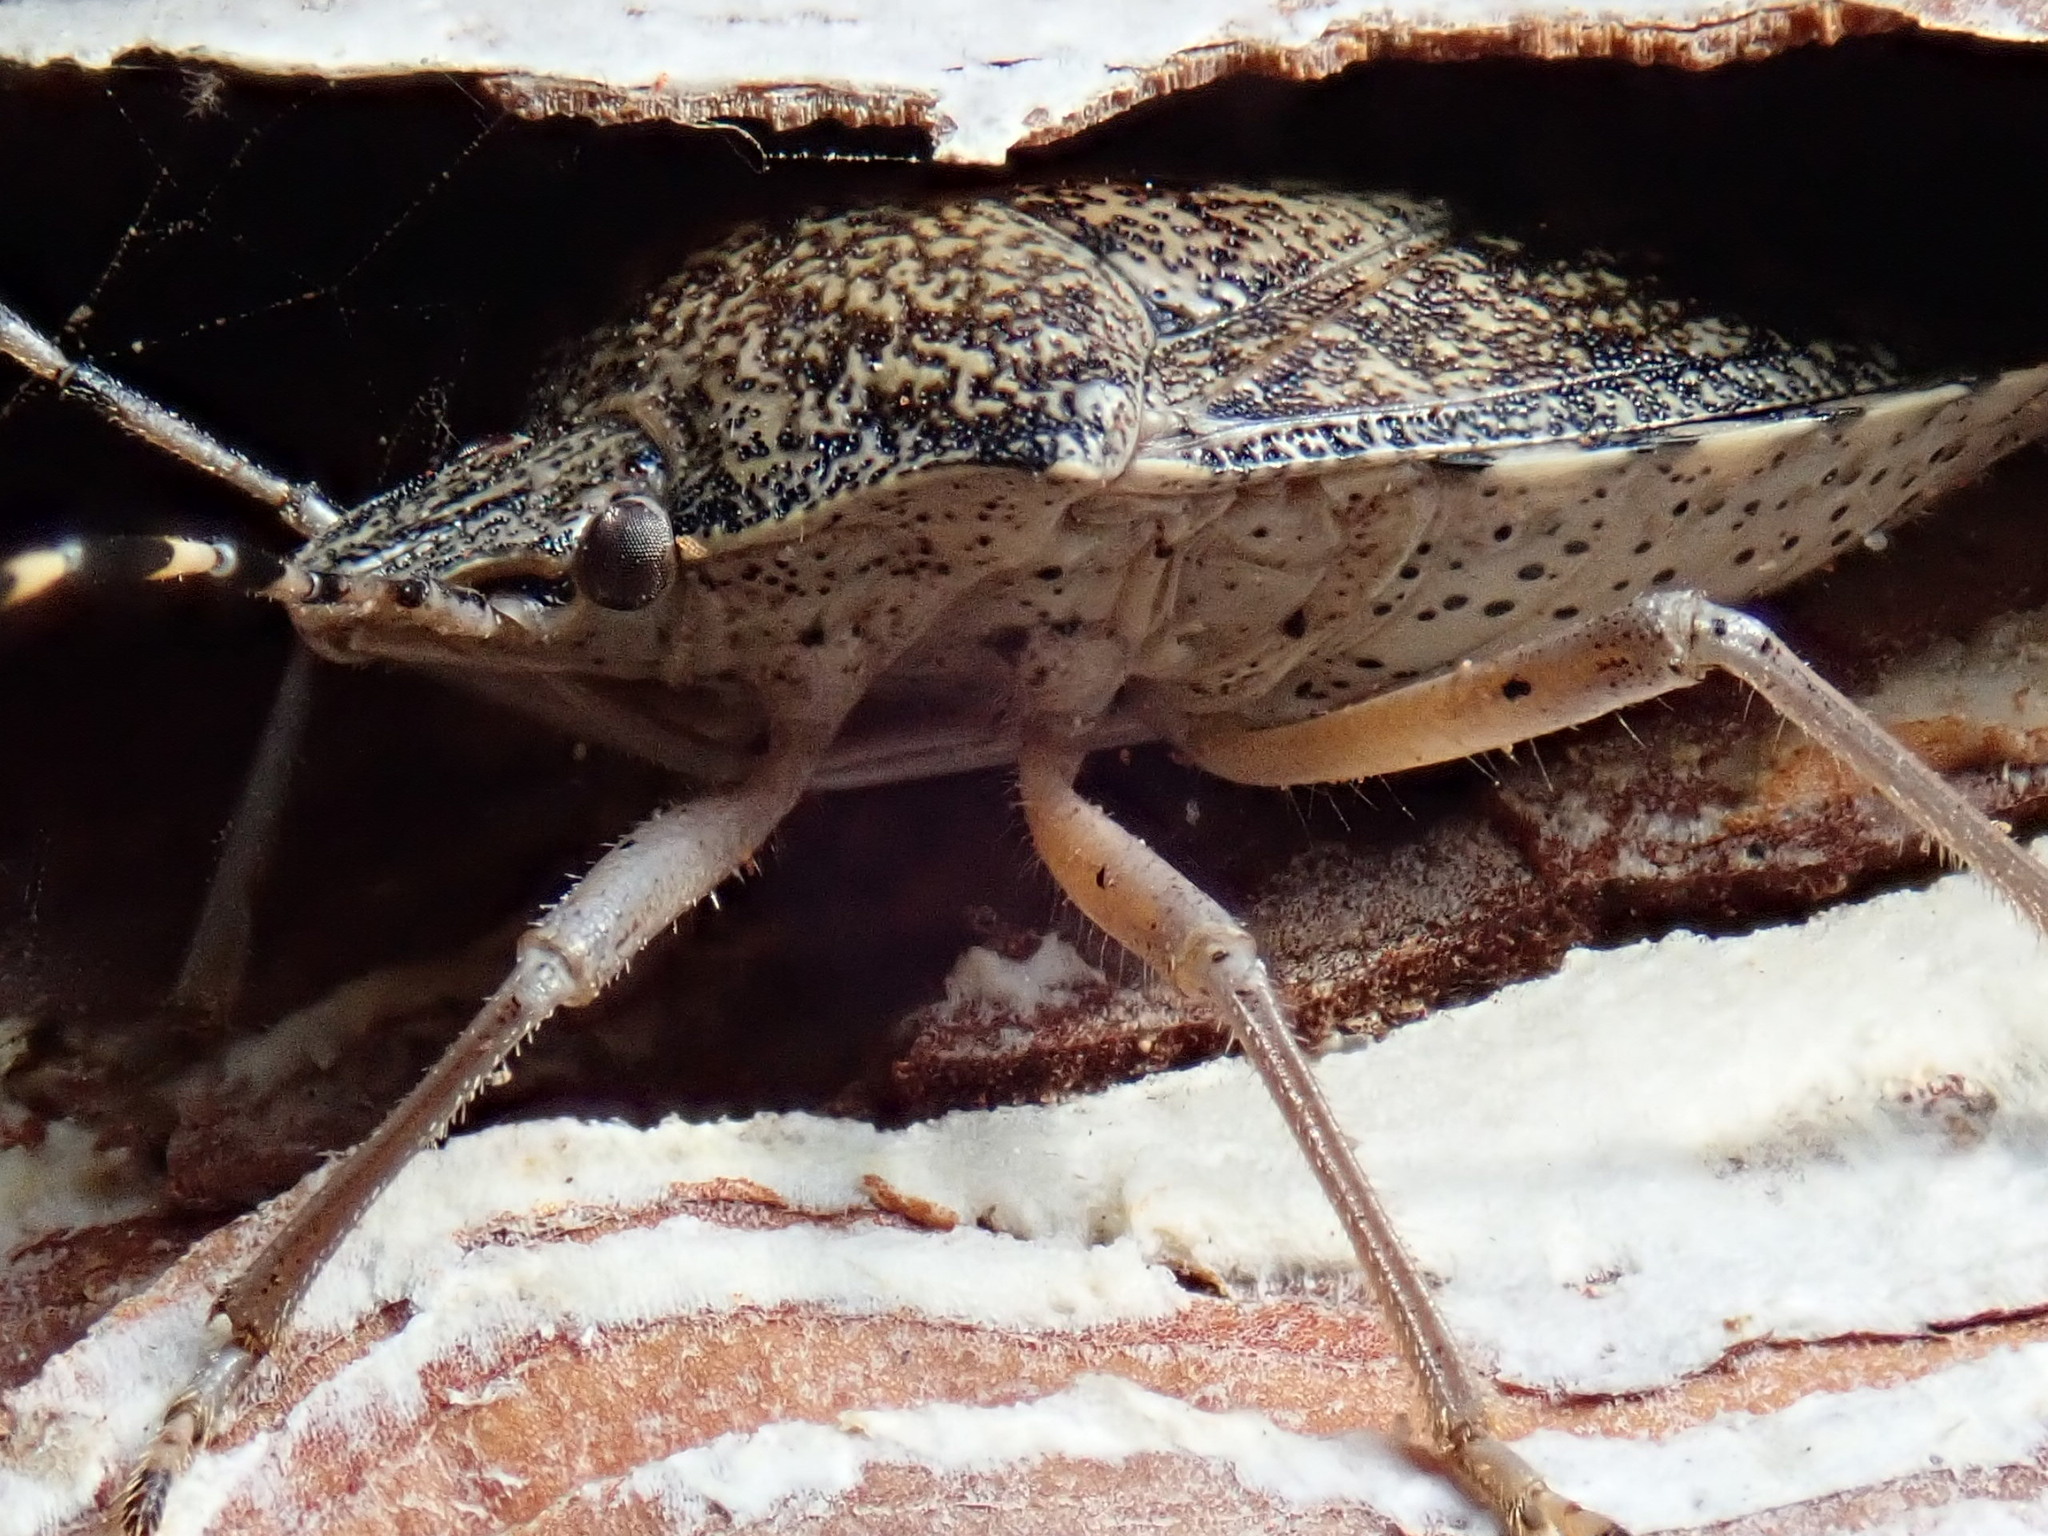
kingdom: Animalia
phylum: Arthropoda
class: Insecta
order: Hemiptera
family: Pentatomidae
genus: Rhaphigaster
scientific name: Rhaphigaster nebulosa
